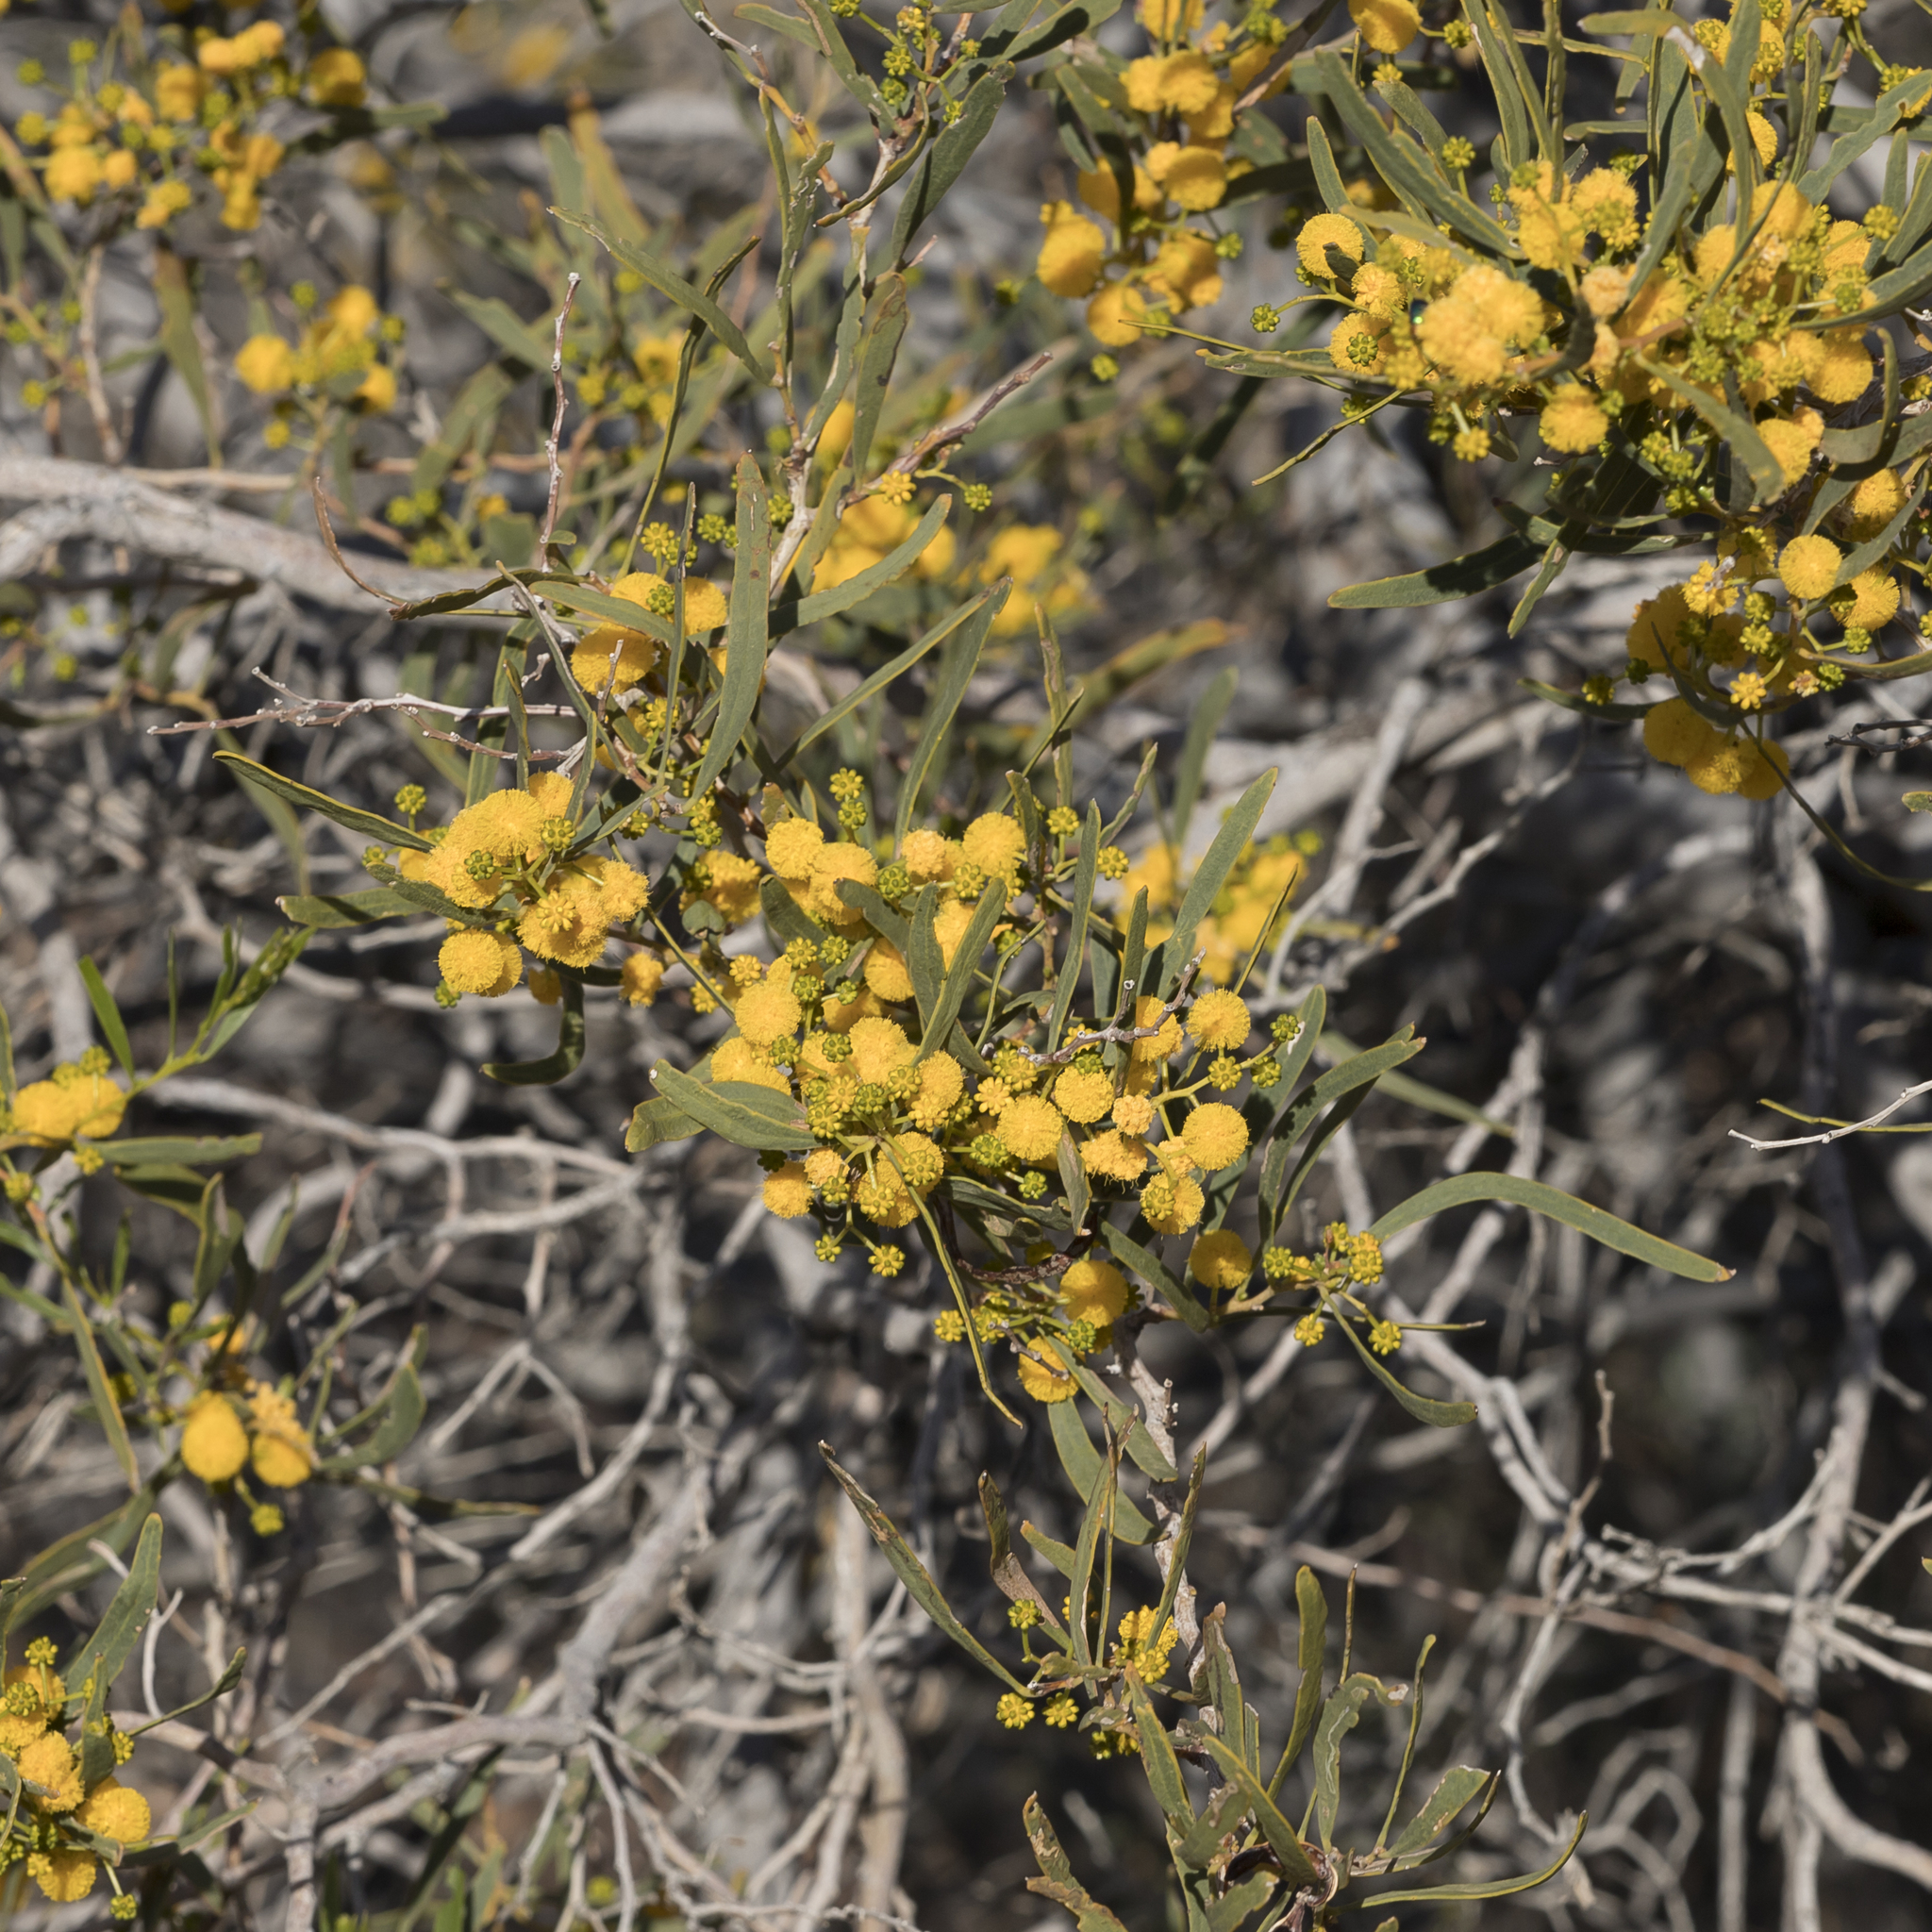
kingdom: Plantae
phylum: Tracheophyta
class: Magnoliopsida
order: Fabales
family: Fabaceae
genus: Acacia
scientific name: Acacia ligulata
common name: Dune wattle
